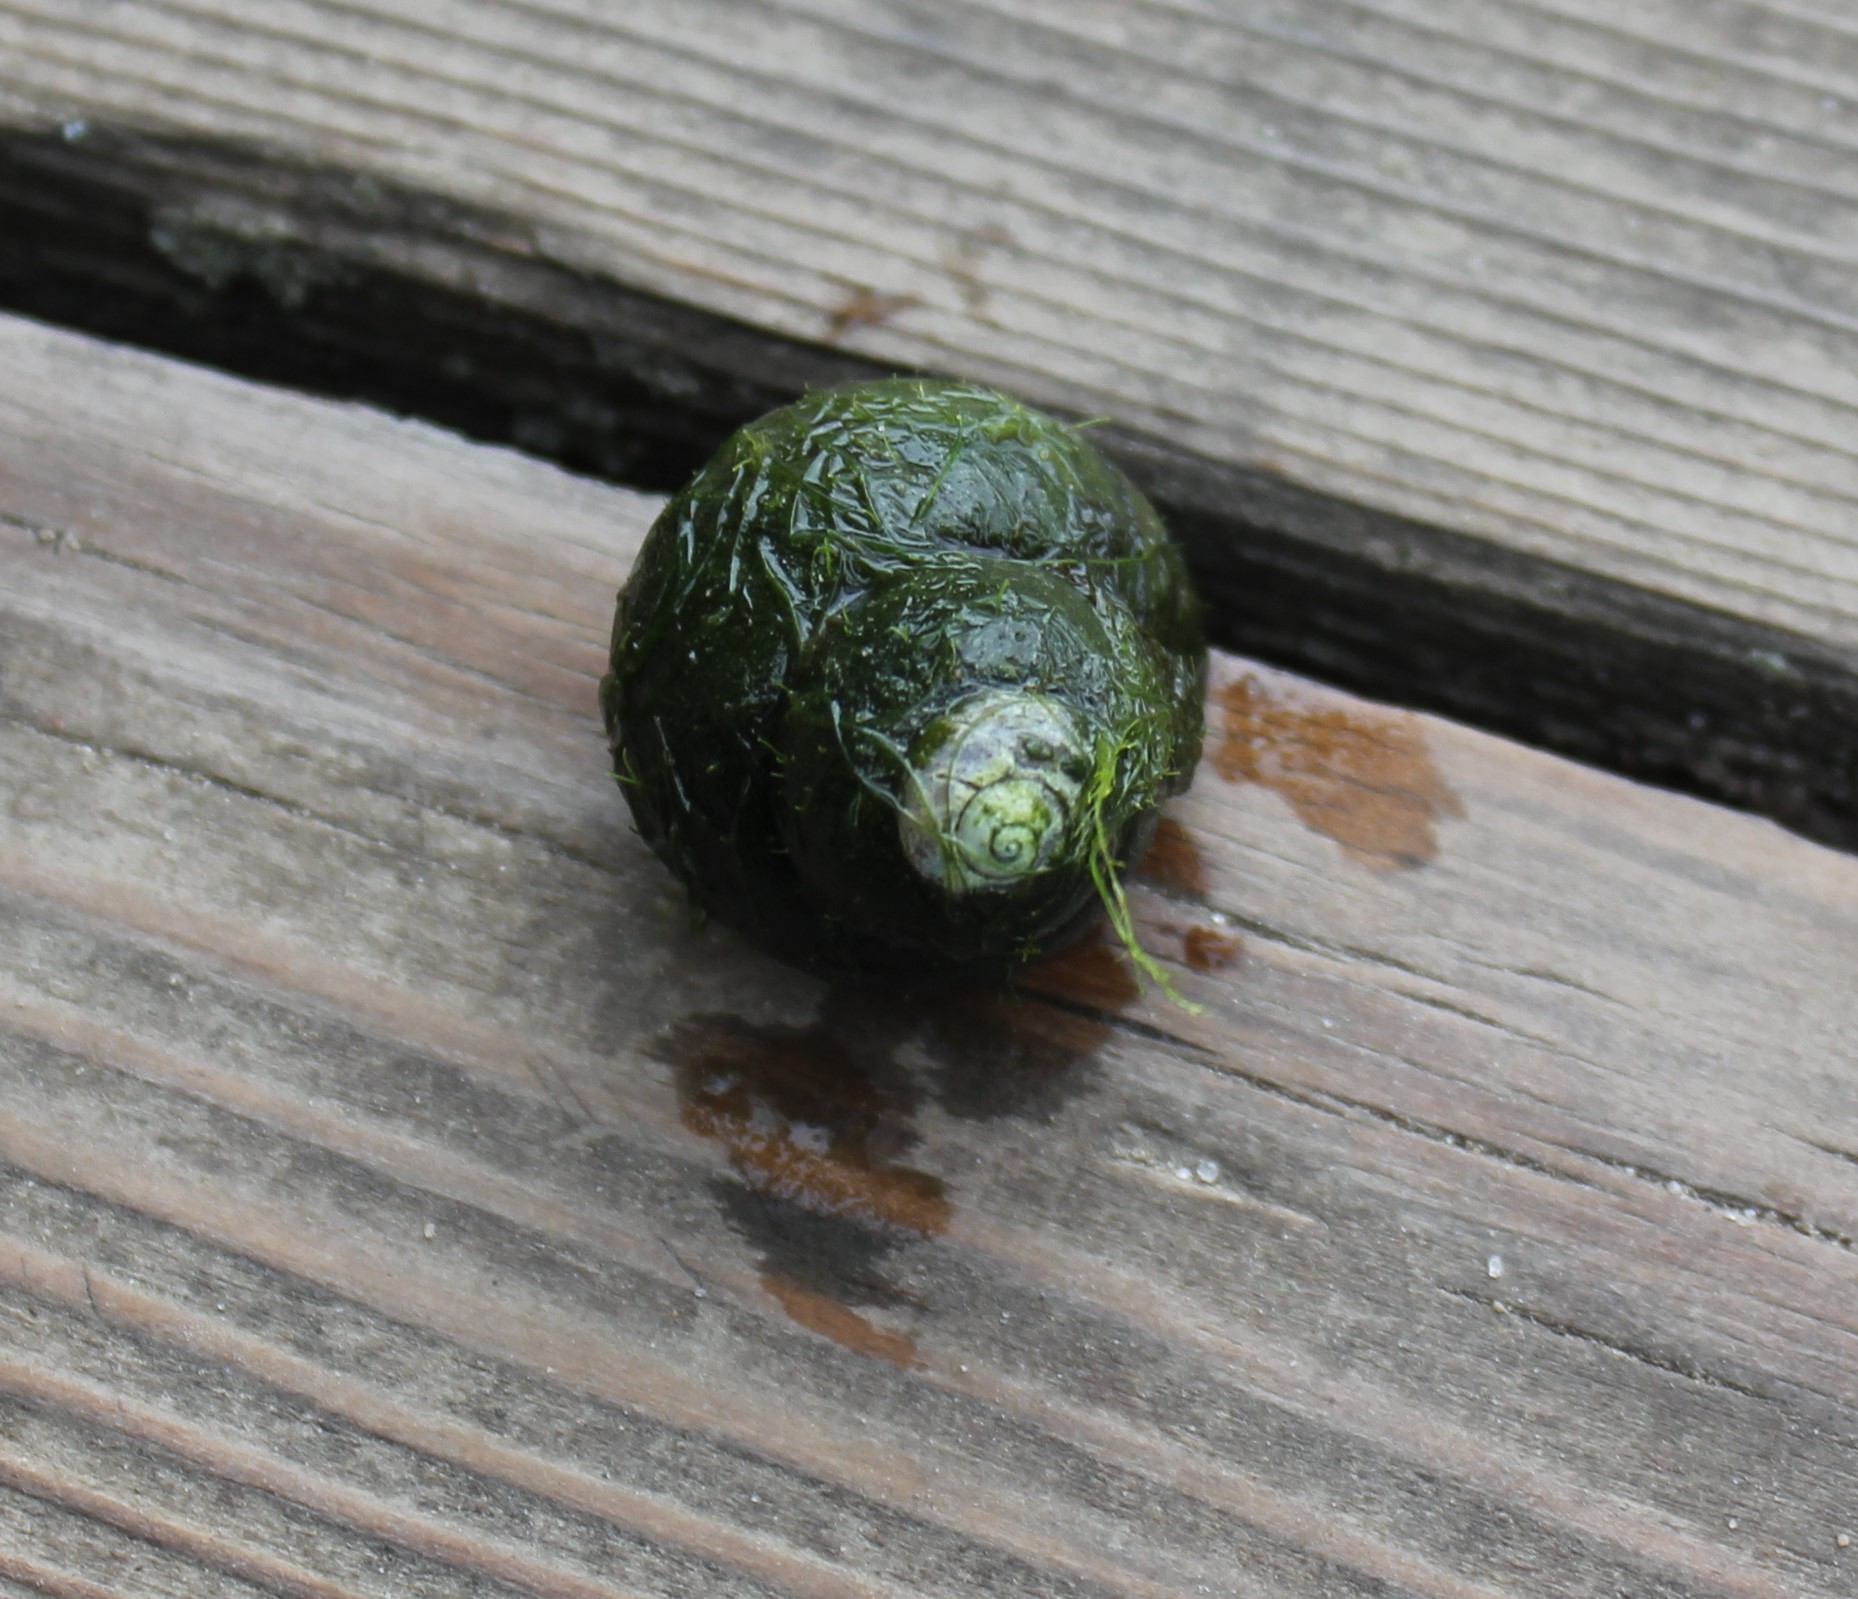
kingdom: Animalia
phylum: Mollusca
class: Gastropoda
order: Architaenioglossa
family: Viviparidae
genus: Viviparus
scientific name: Viviparus viviparus
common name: River snail
